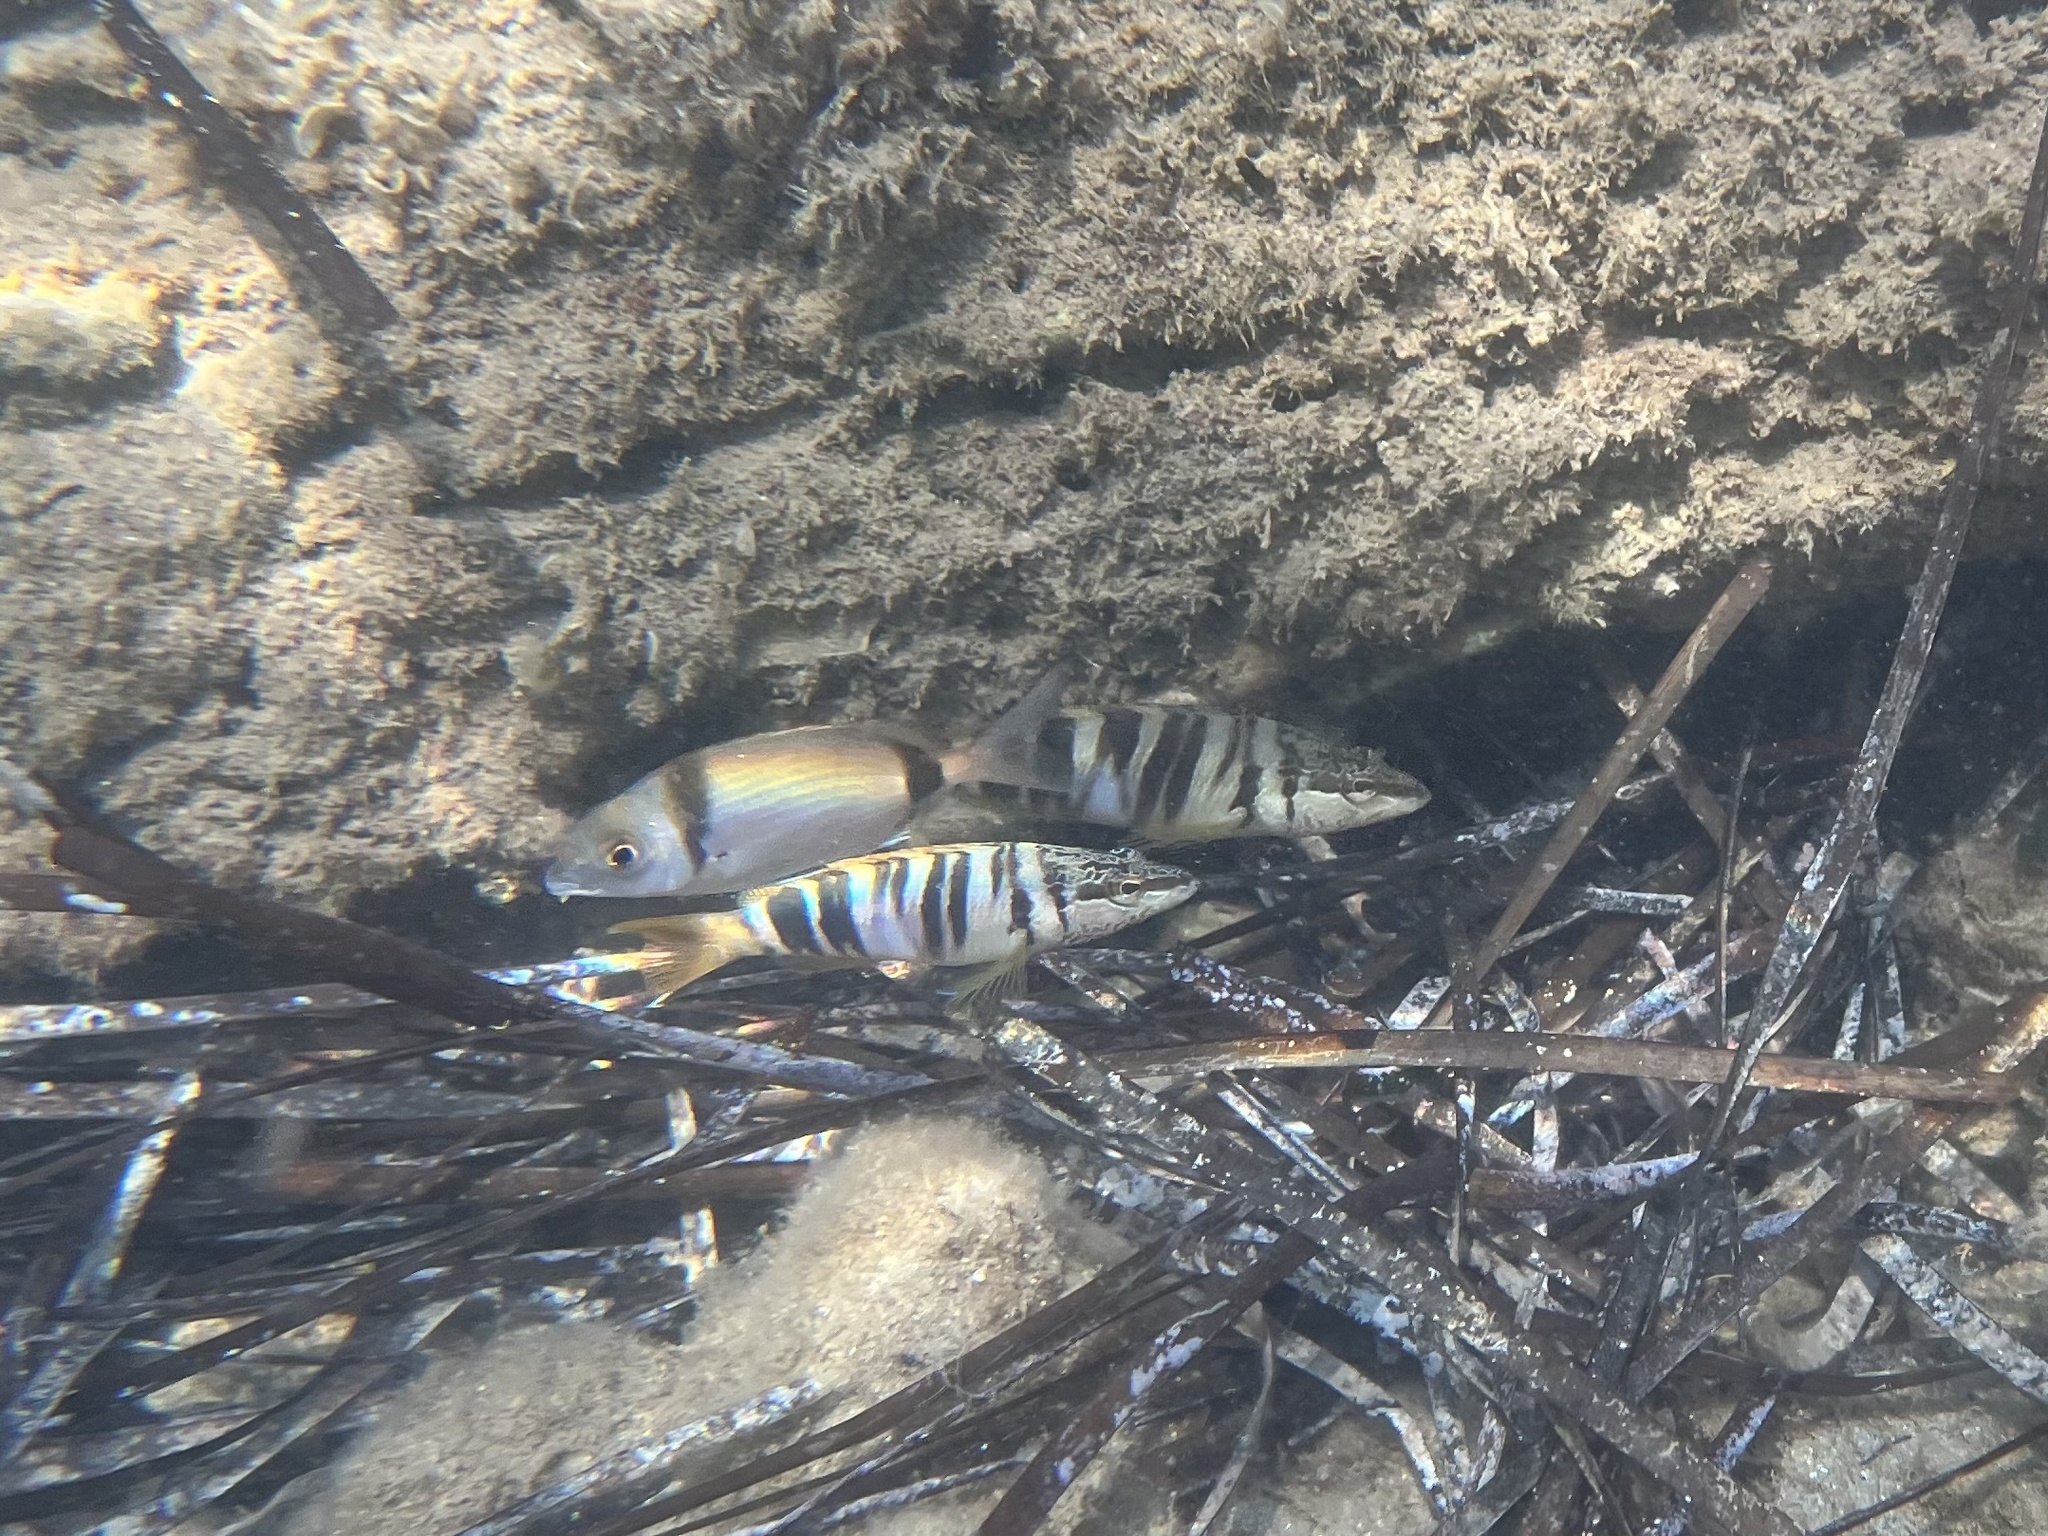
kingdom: Animalia
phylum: Chordata
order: Perciformes
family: Sparidae
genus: Diplodus
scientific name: Diplodus vulgaris
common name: Common two-banded seabream
